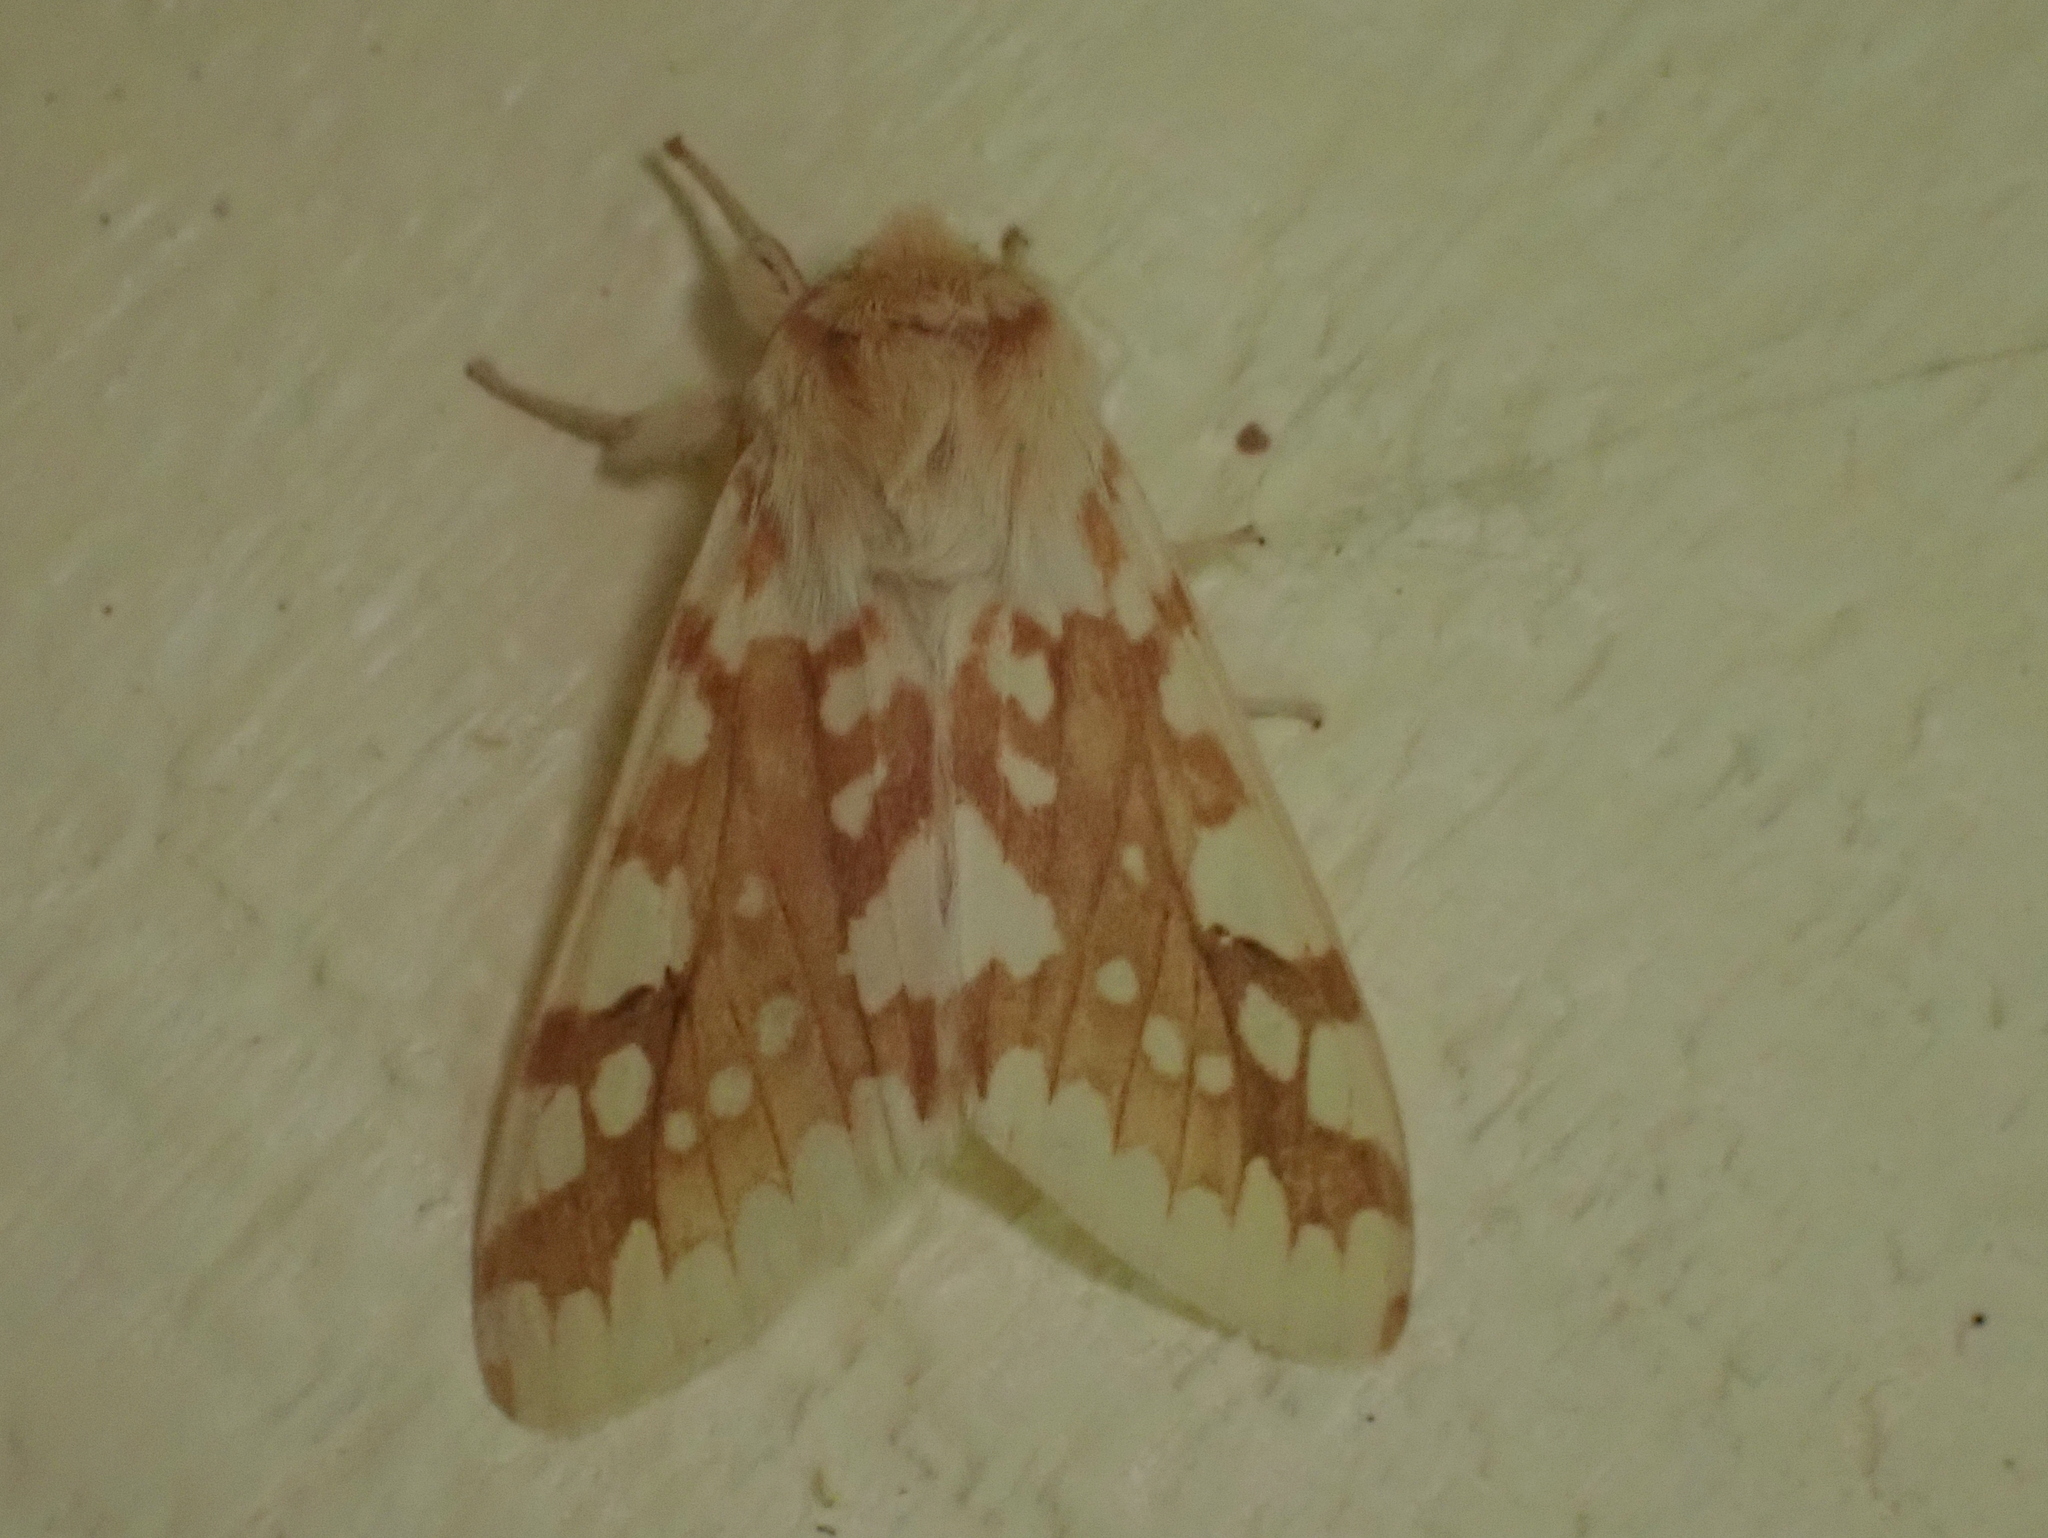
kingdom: Animalia
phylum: Arthropoda
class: Insecta
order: Lepidoptera
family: Erebidae
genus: Lophocampa
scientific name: Lophocampa maculata
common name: Spotted tussock moth
